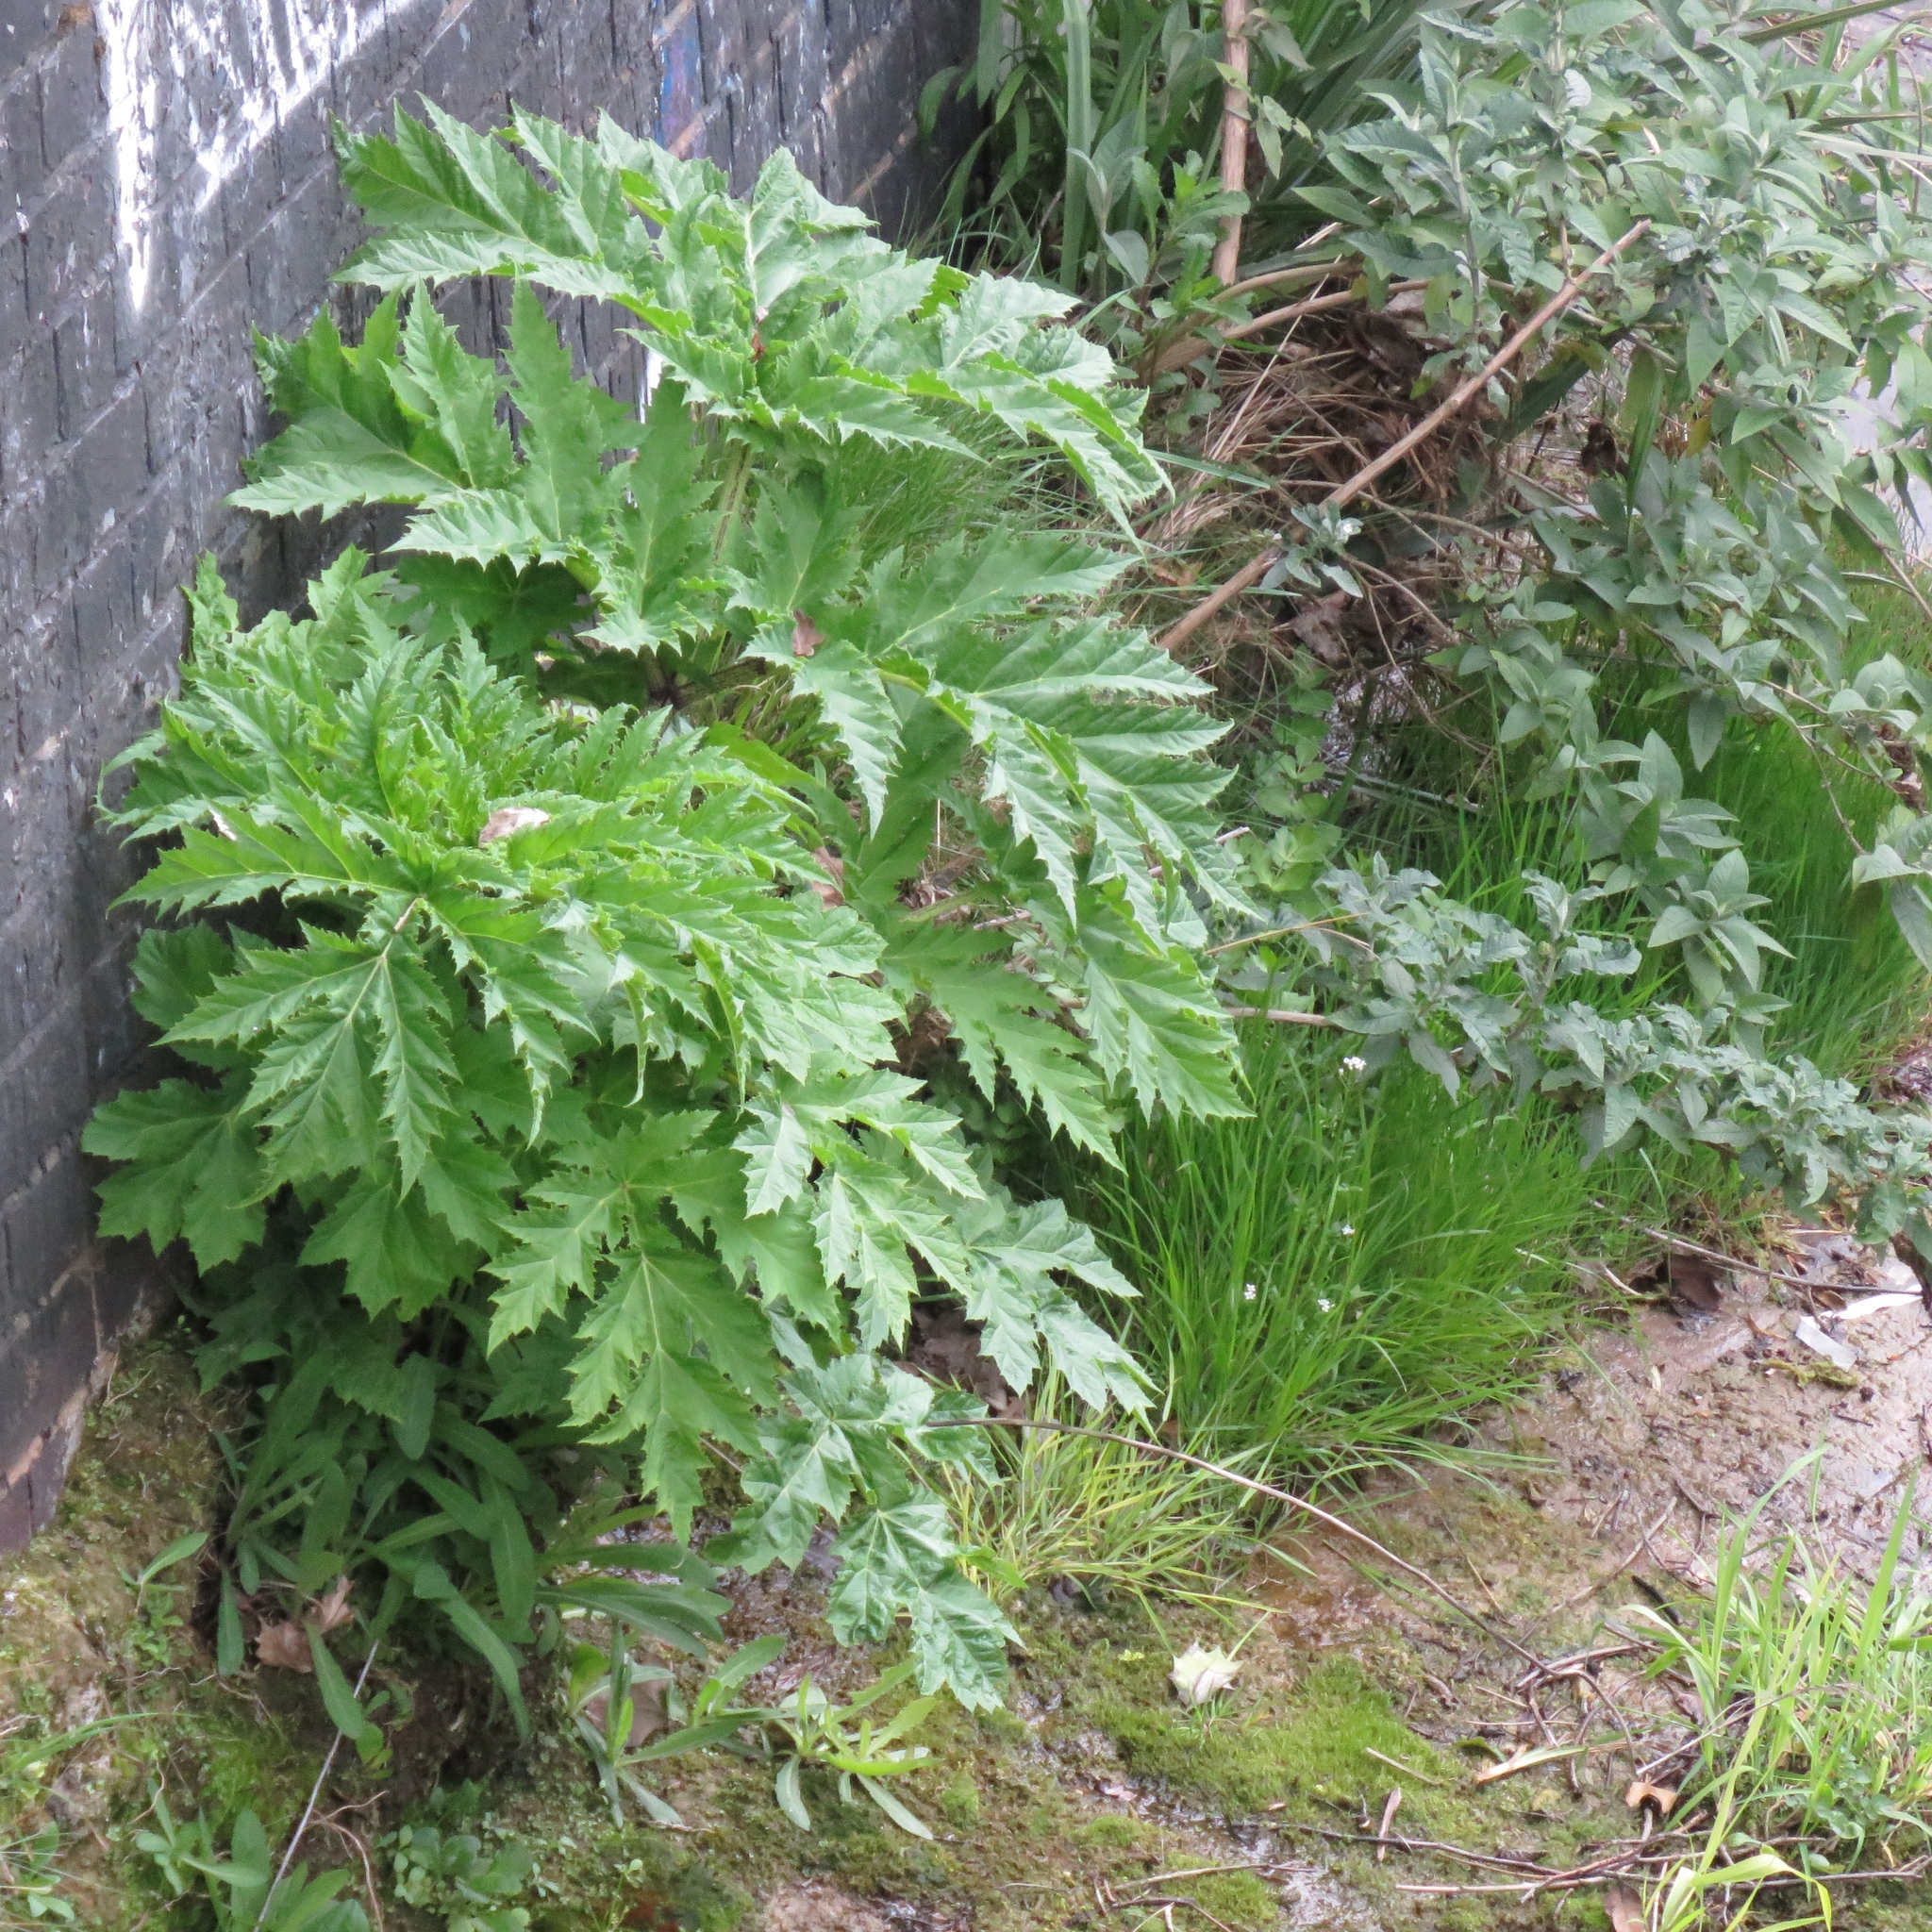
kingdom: Plantae
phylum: Tracheophyta
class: Magnoliopsida
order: Apiales
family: Apiaceae
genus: Heracleum
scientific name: Heracleum mantegazzianum
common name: Giant hogweed
